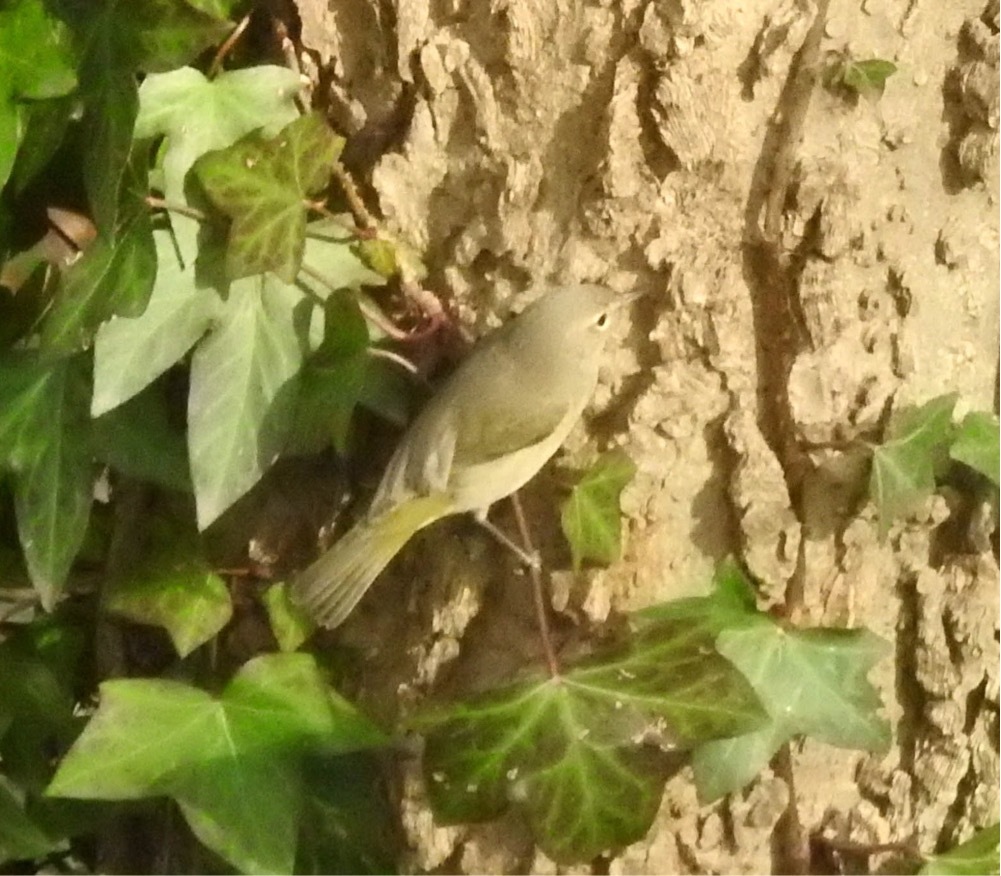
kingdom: Animalia
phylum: Chordata
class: Aves
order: Passeriformes
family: Parulidae
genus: Leiothlypis
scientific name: Leiothlypis celata
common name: Orange-crowned warbler
